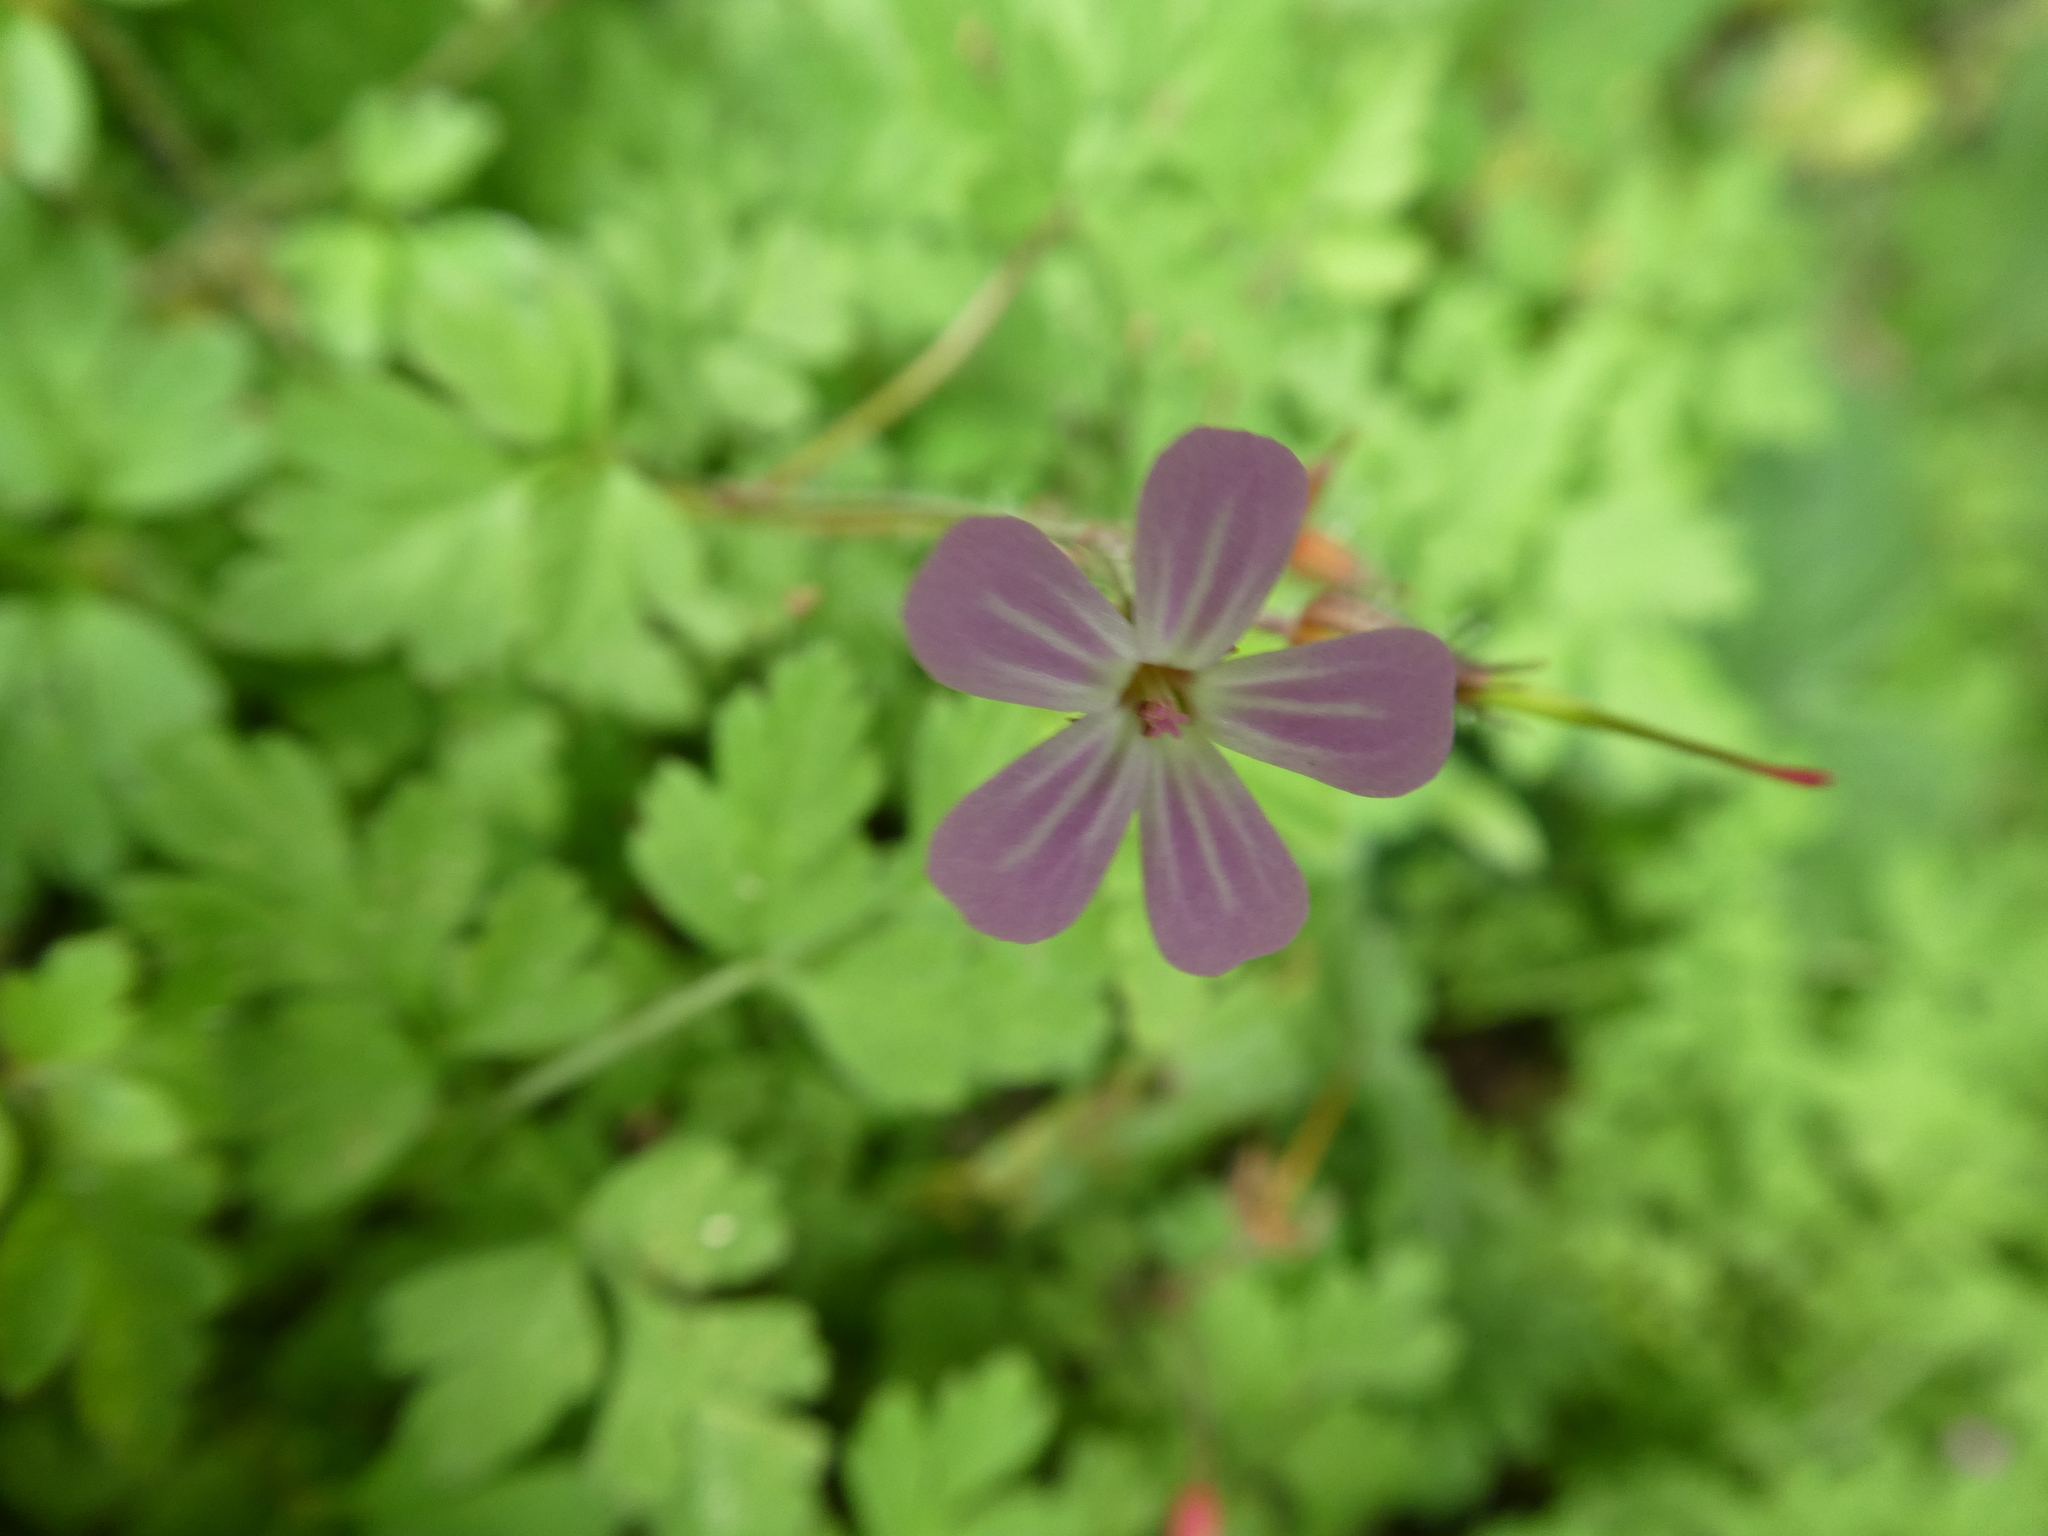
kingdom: Plantae
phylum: Tracheophyta
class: Magnoliopsida
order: Geraniales
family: Geraniaceae
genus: Geranium
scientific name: Geranium robertianum
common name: Herb-robert
